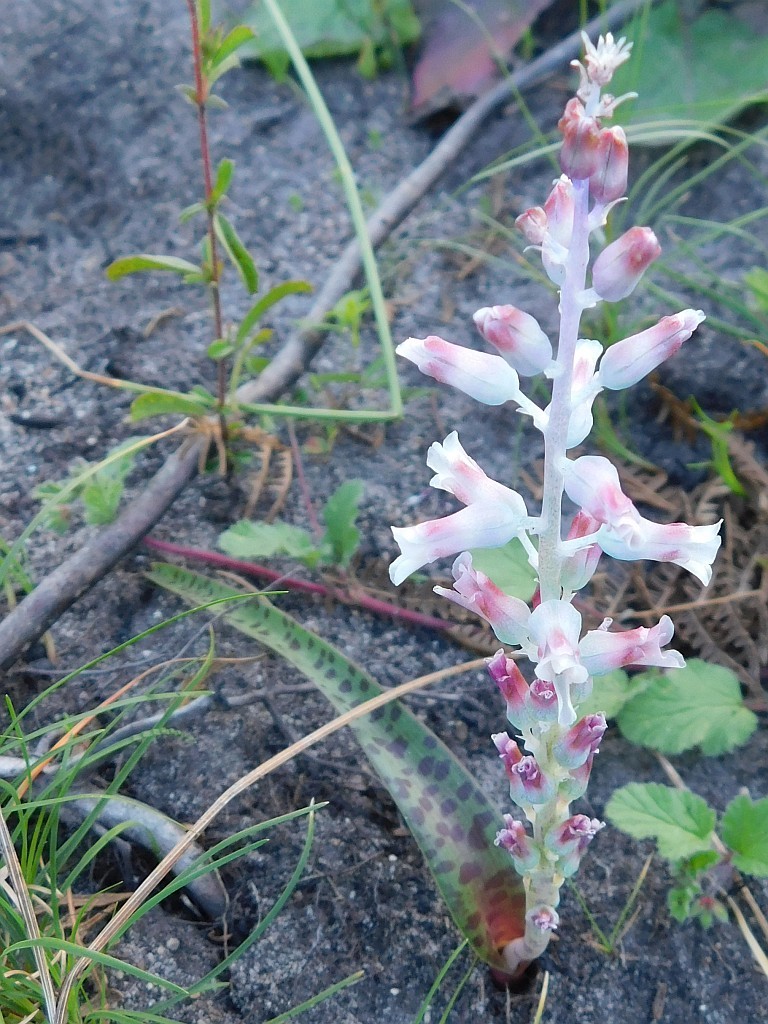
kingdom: Plantae
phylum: Tracheophyta
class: Liliopsida
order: Asparagales
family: Asparagaceae
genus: Lachenalia
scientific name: Lachenalia judithiae
